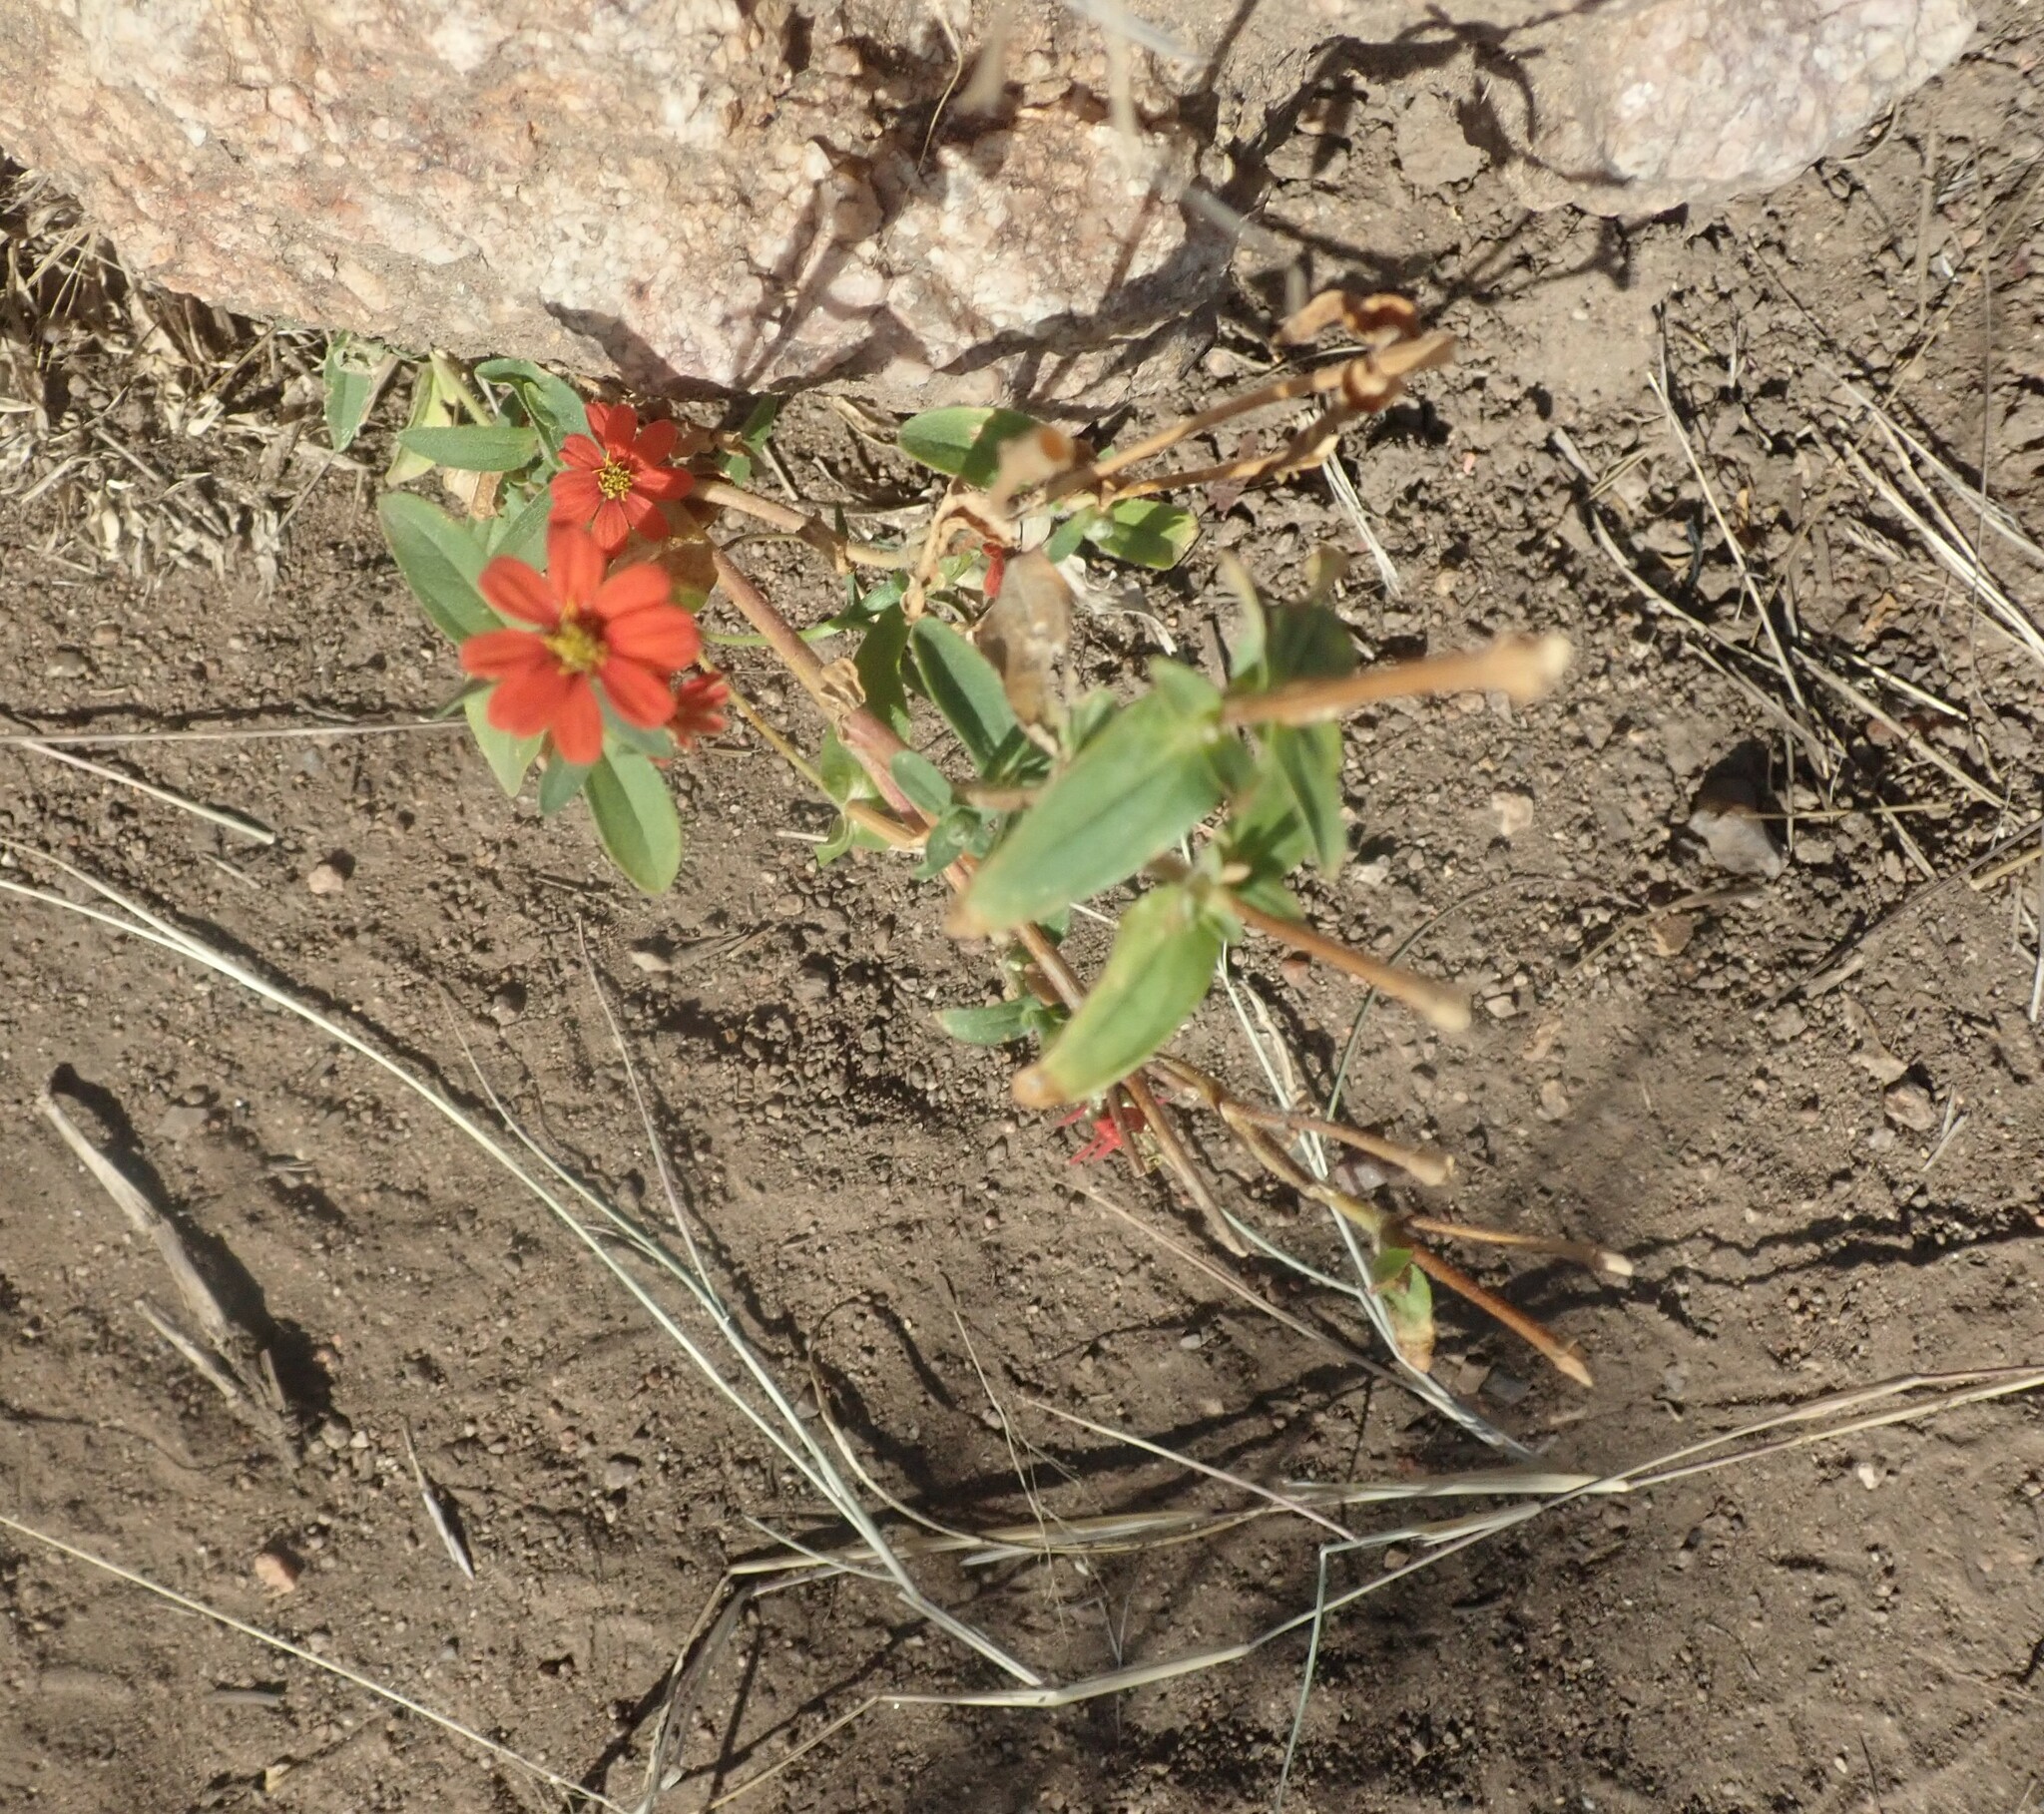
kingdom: Plantae
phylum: Tracheophyta
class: Magnoliopsida
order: Asterales
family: Asteraceae
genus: Zinnia
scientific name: Zinnia peruviana
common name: Peruvian zinnia
